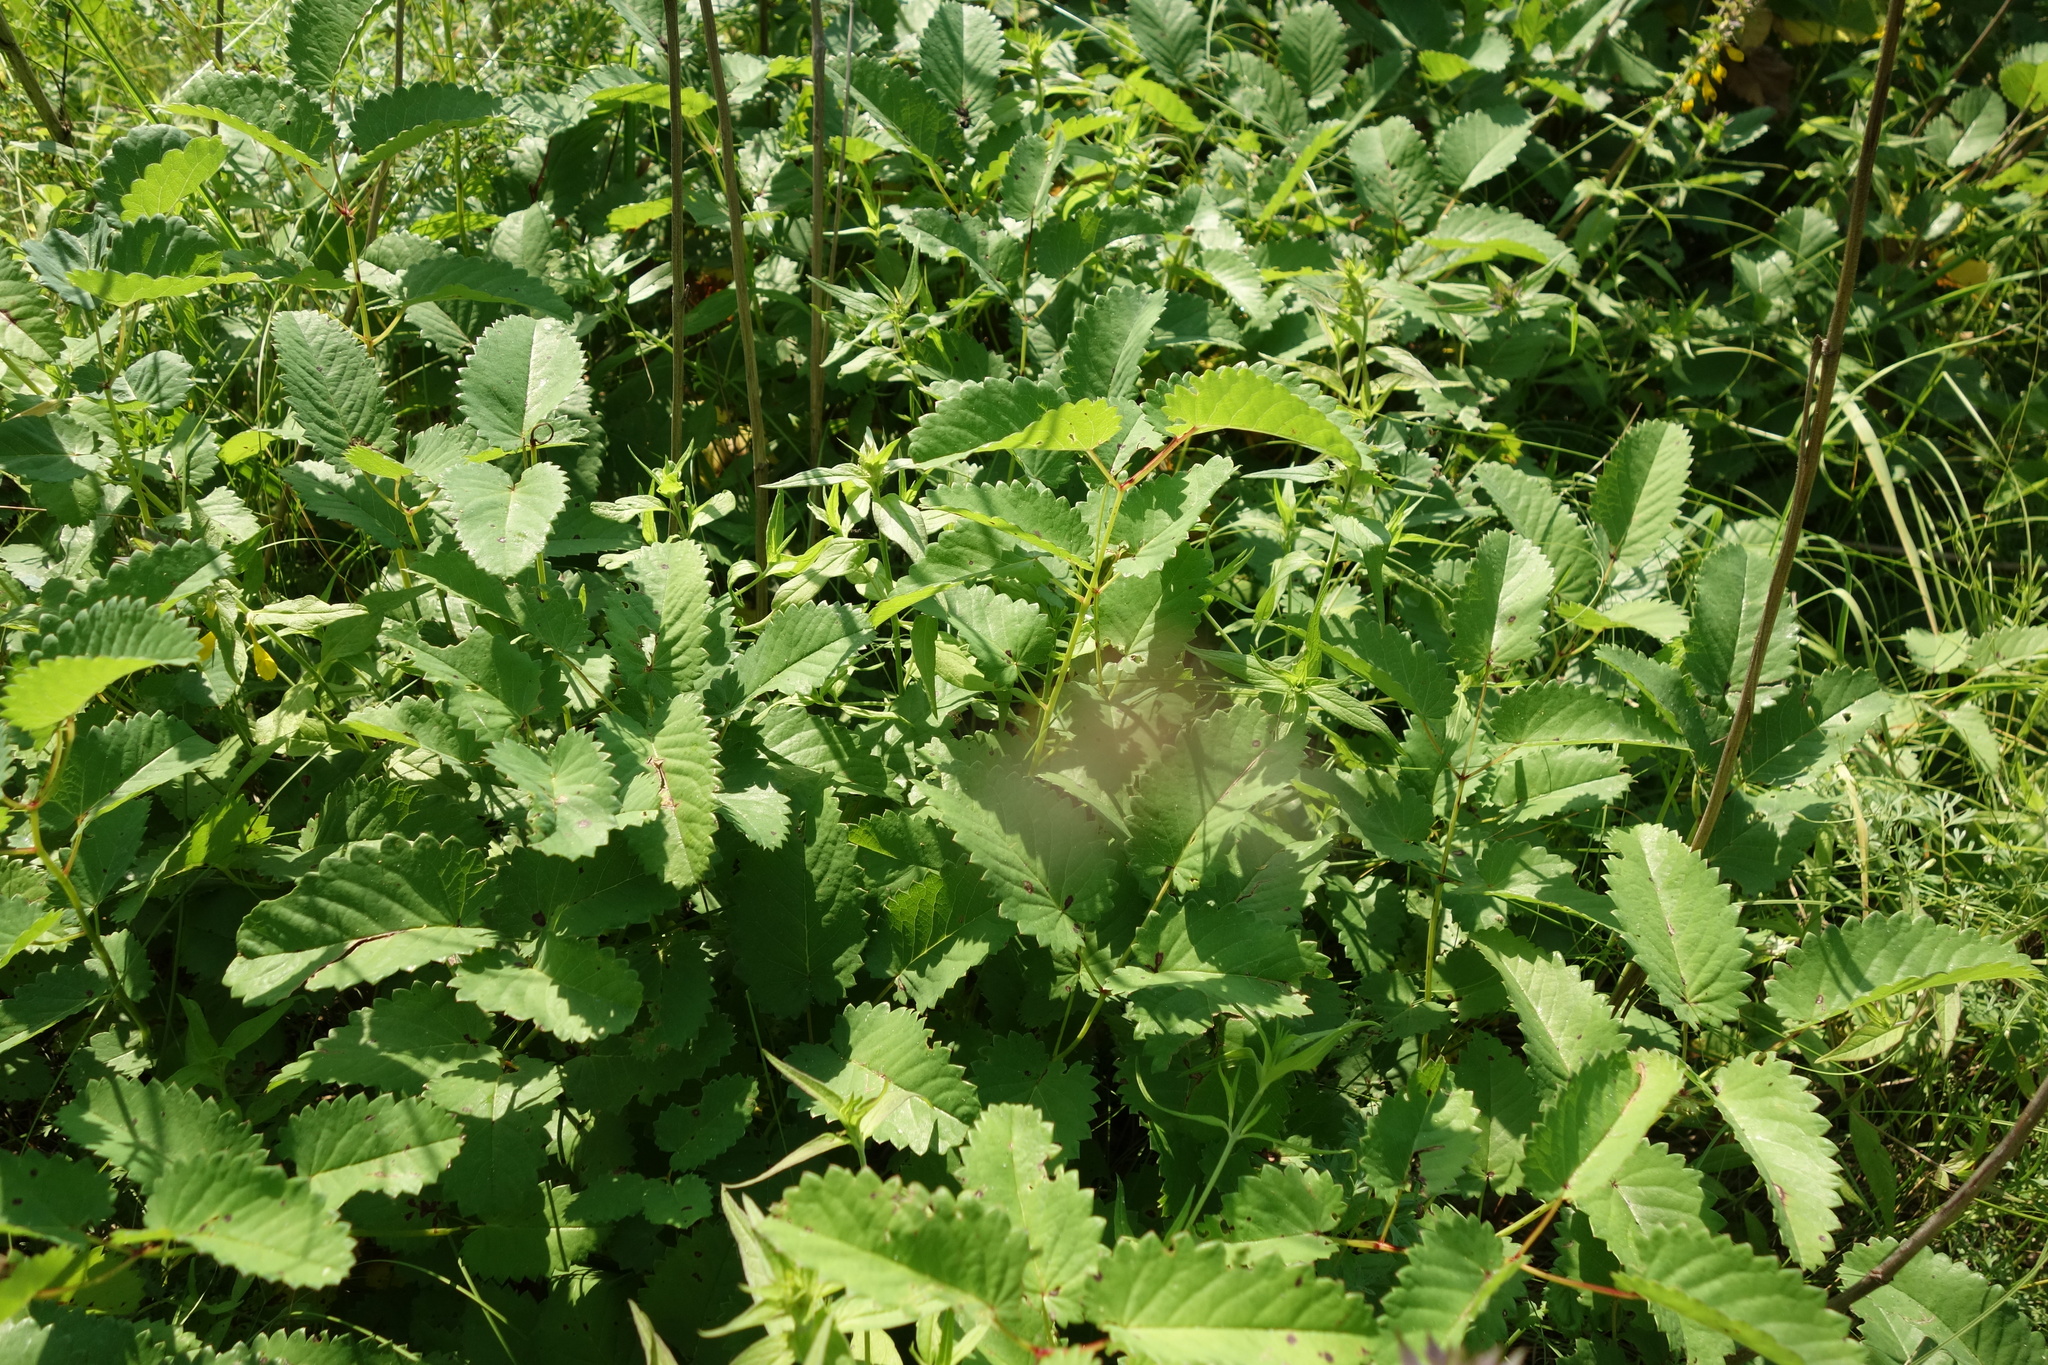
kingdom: Plantae
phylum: Tracheophyta
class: Magnoliopsida
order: Rosales
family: Rosaceae
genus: Sanguisorba
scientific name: Sanguisorba officinalis
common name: Great burnet
